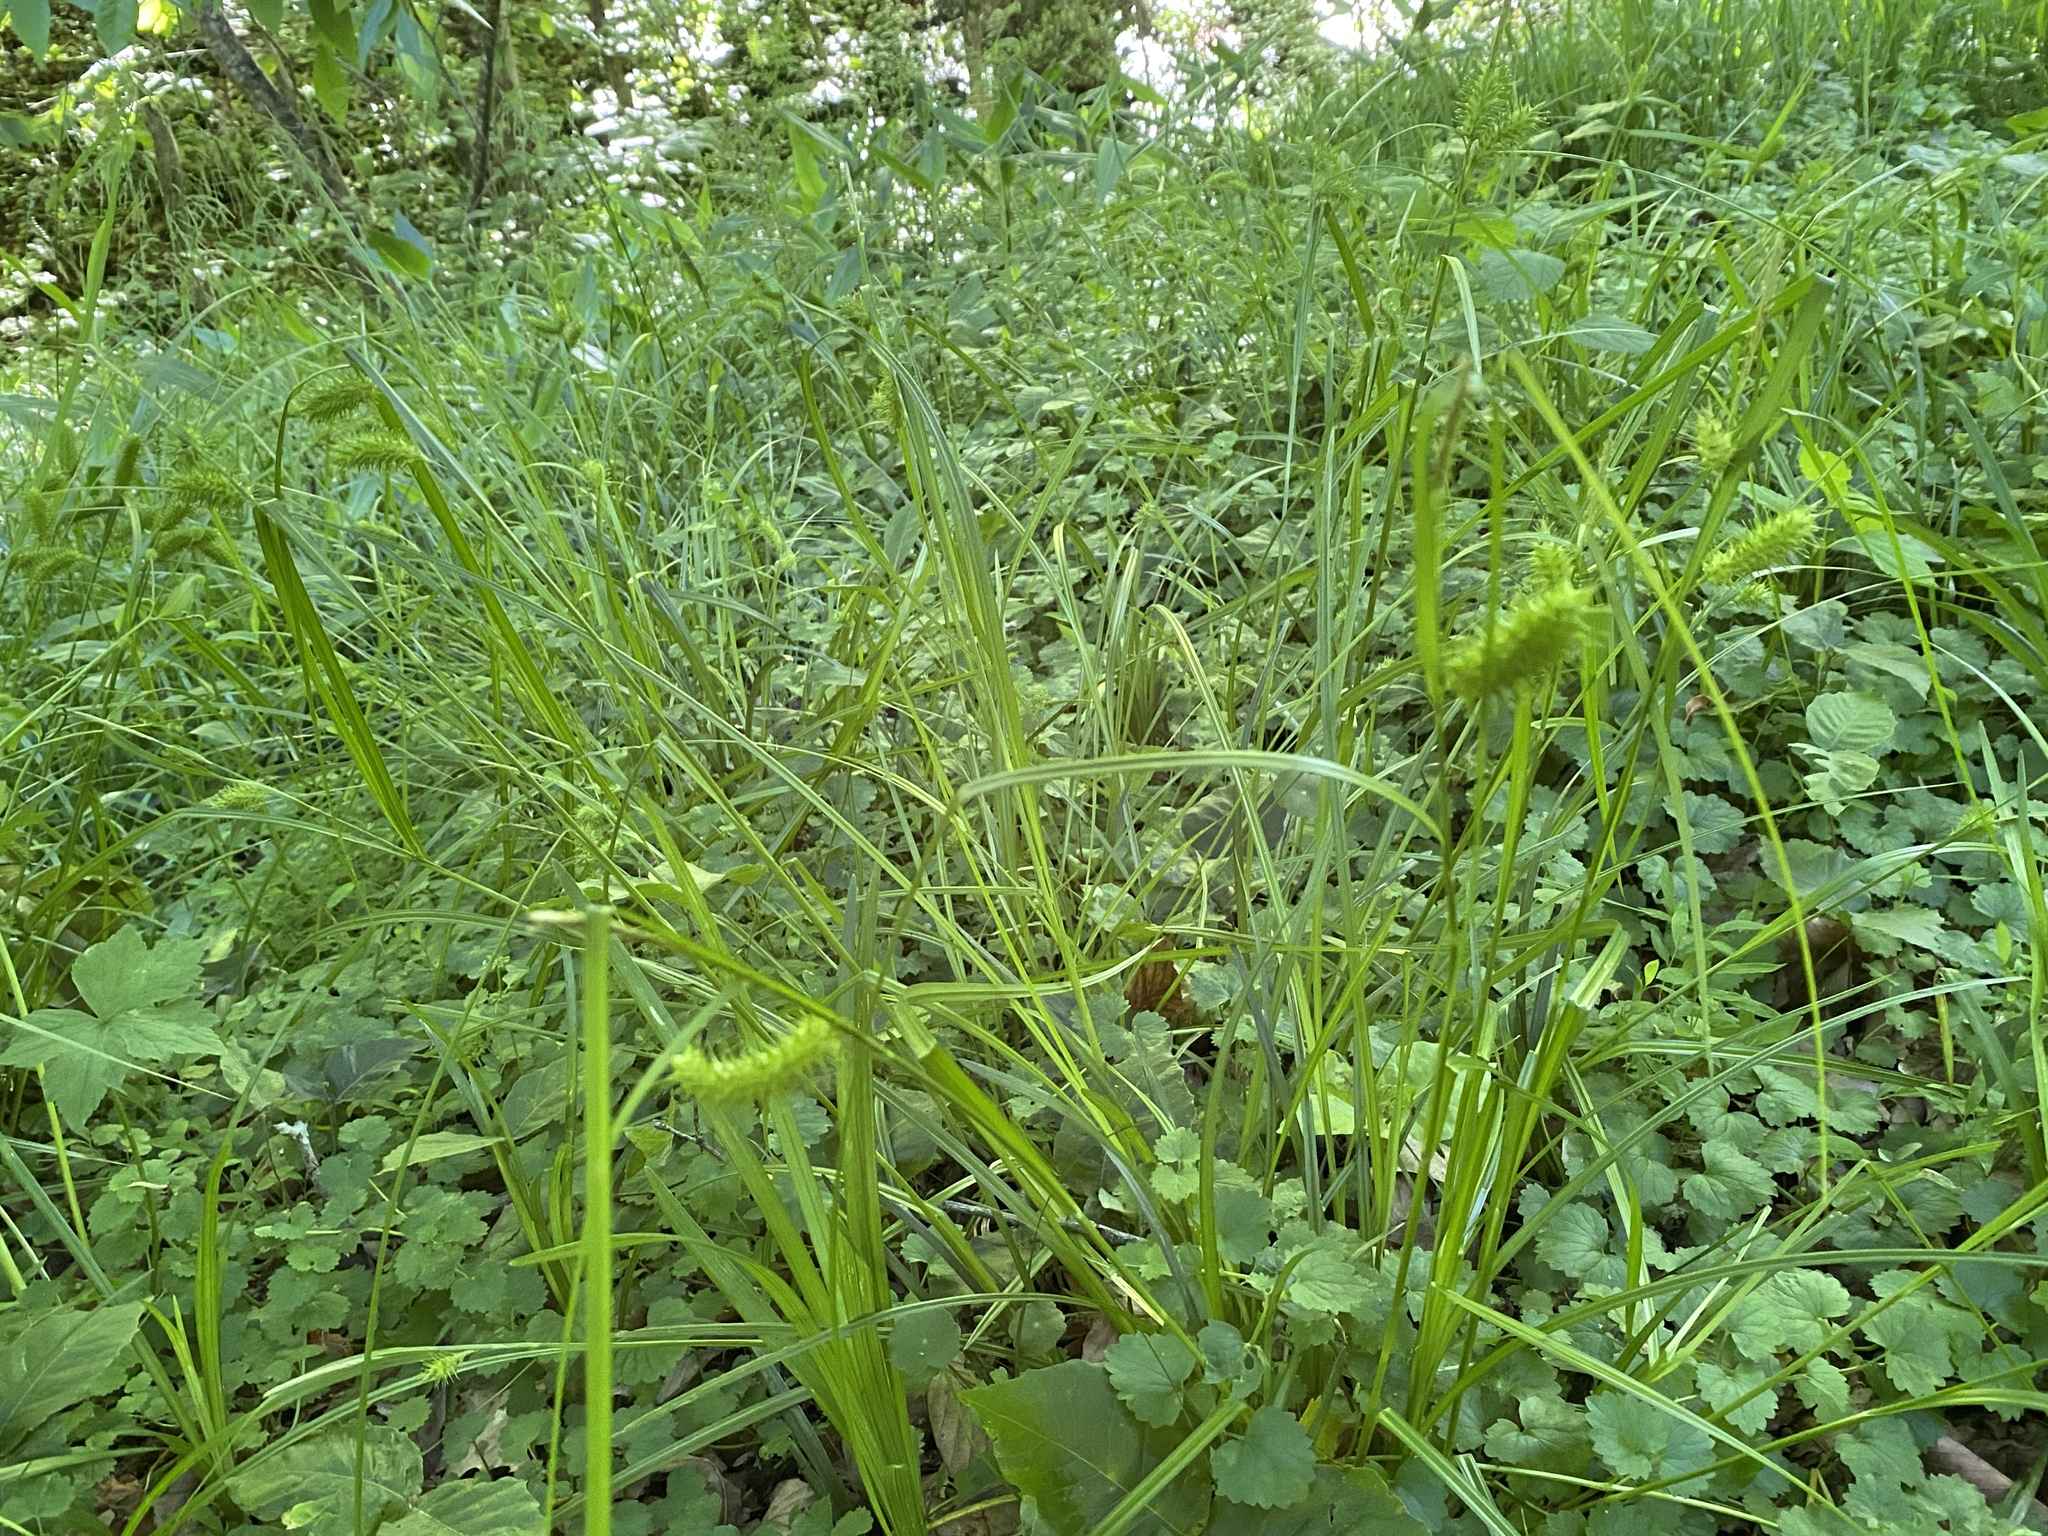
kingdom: Plantae
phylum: Tracheophyta
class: Liliopsida
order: Poales
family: Cyperaceae
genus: Carex
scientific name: Carex lurida
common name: Sallow sedge
